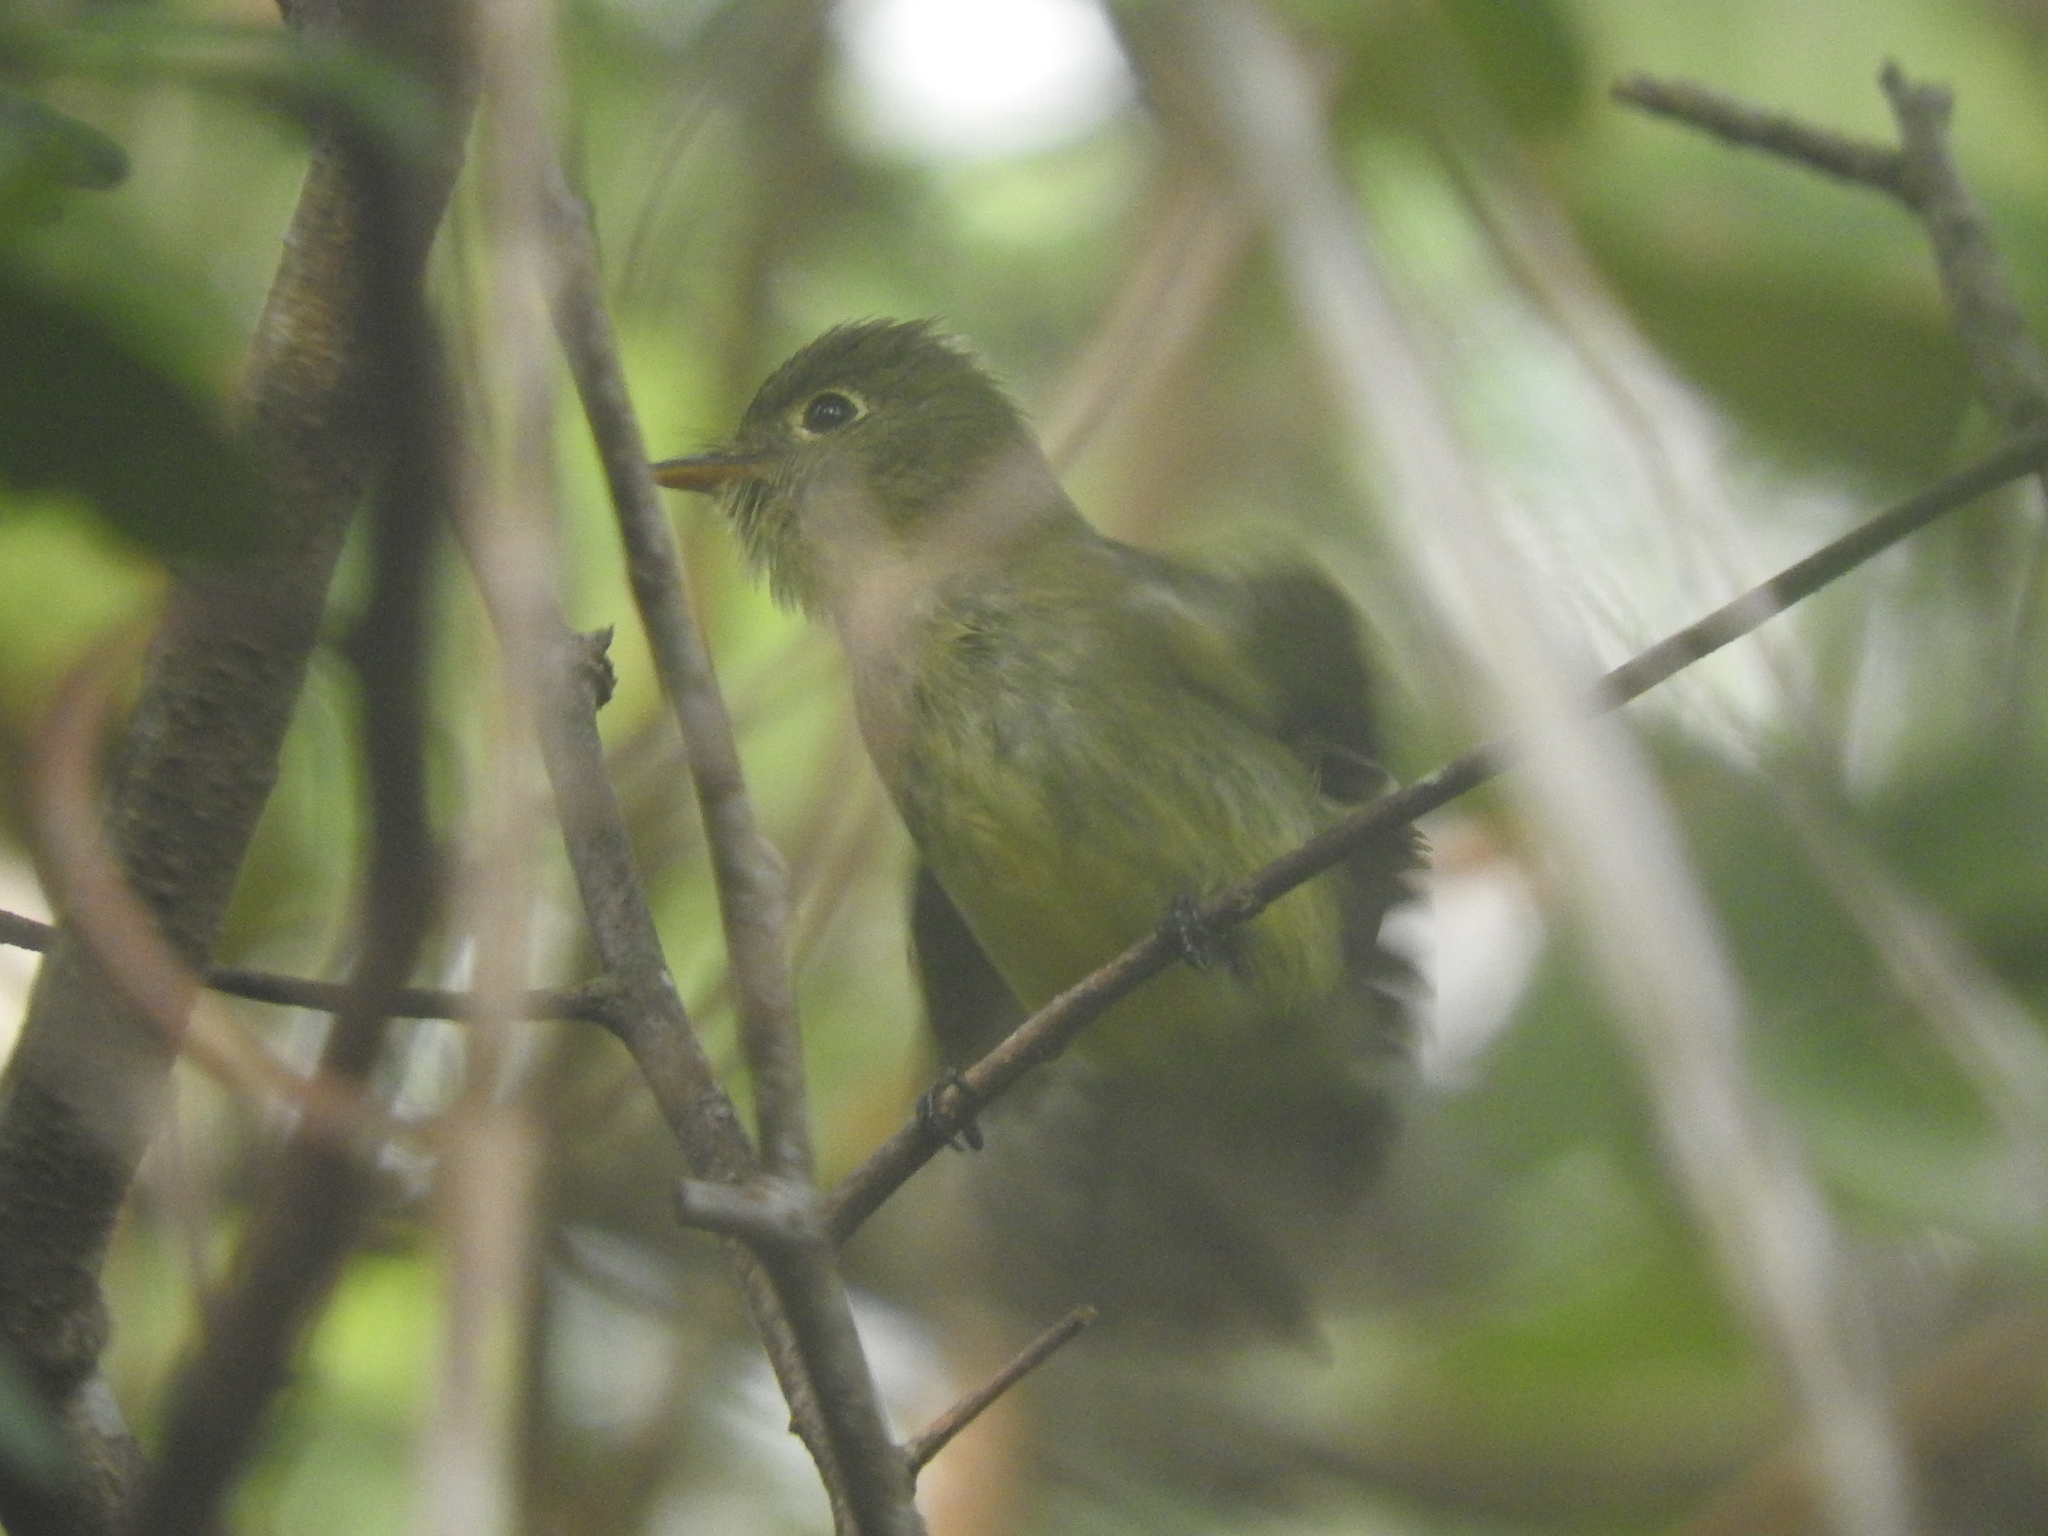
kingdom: Animalia
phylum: Chordata
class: Aves
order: Passeriformes
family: Tyrannidae
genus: Rhynchocyclus
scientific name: Rhynchocyclus brevirostris
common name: Eye-ringed flatbill
